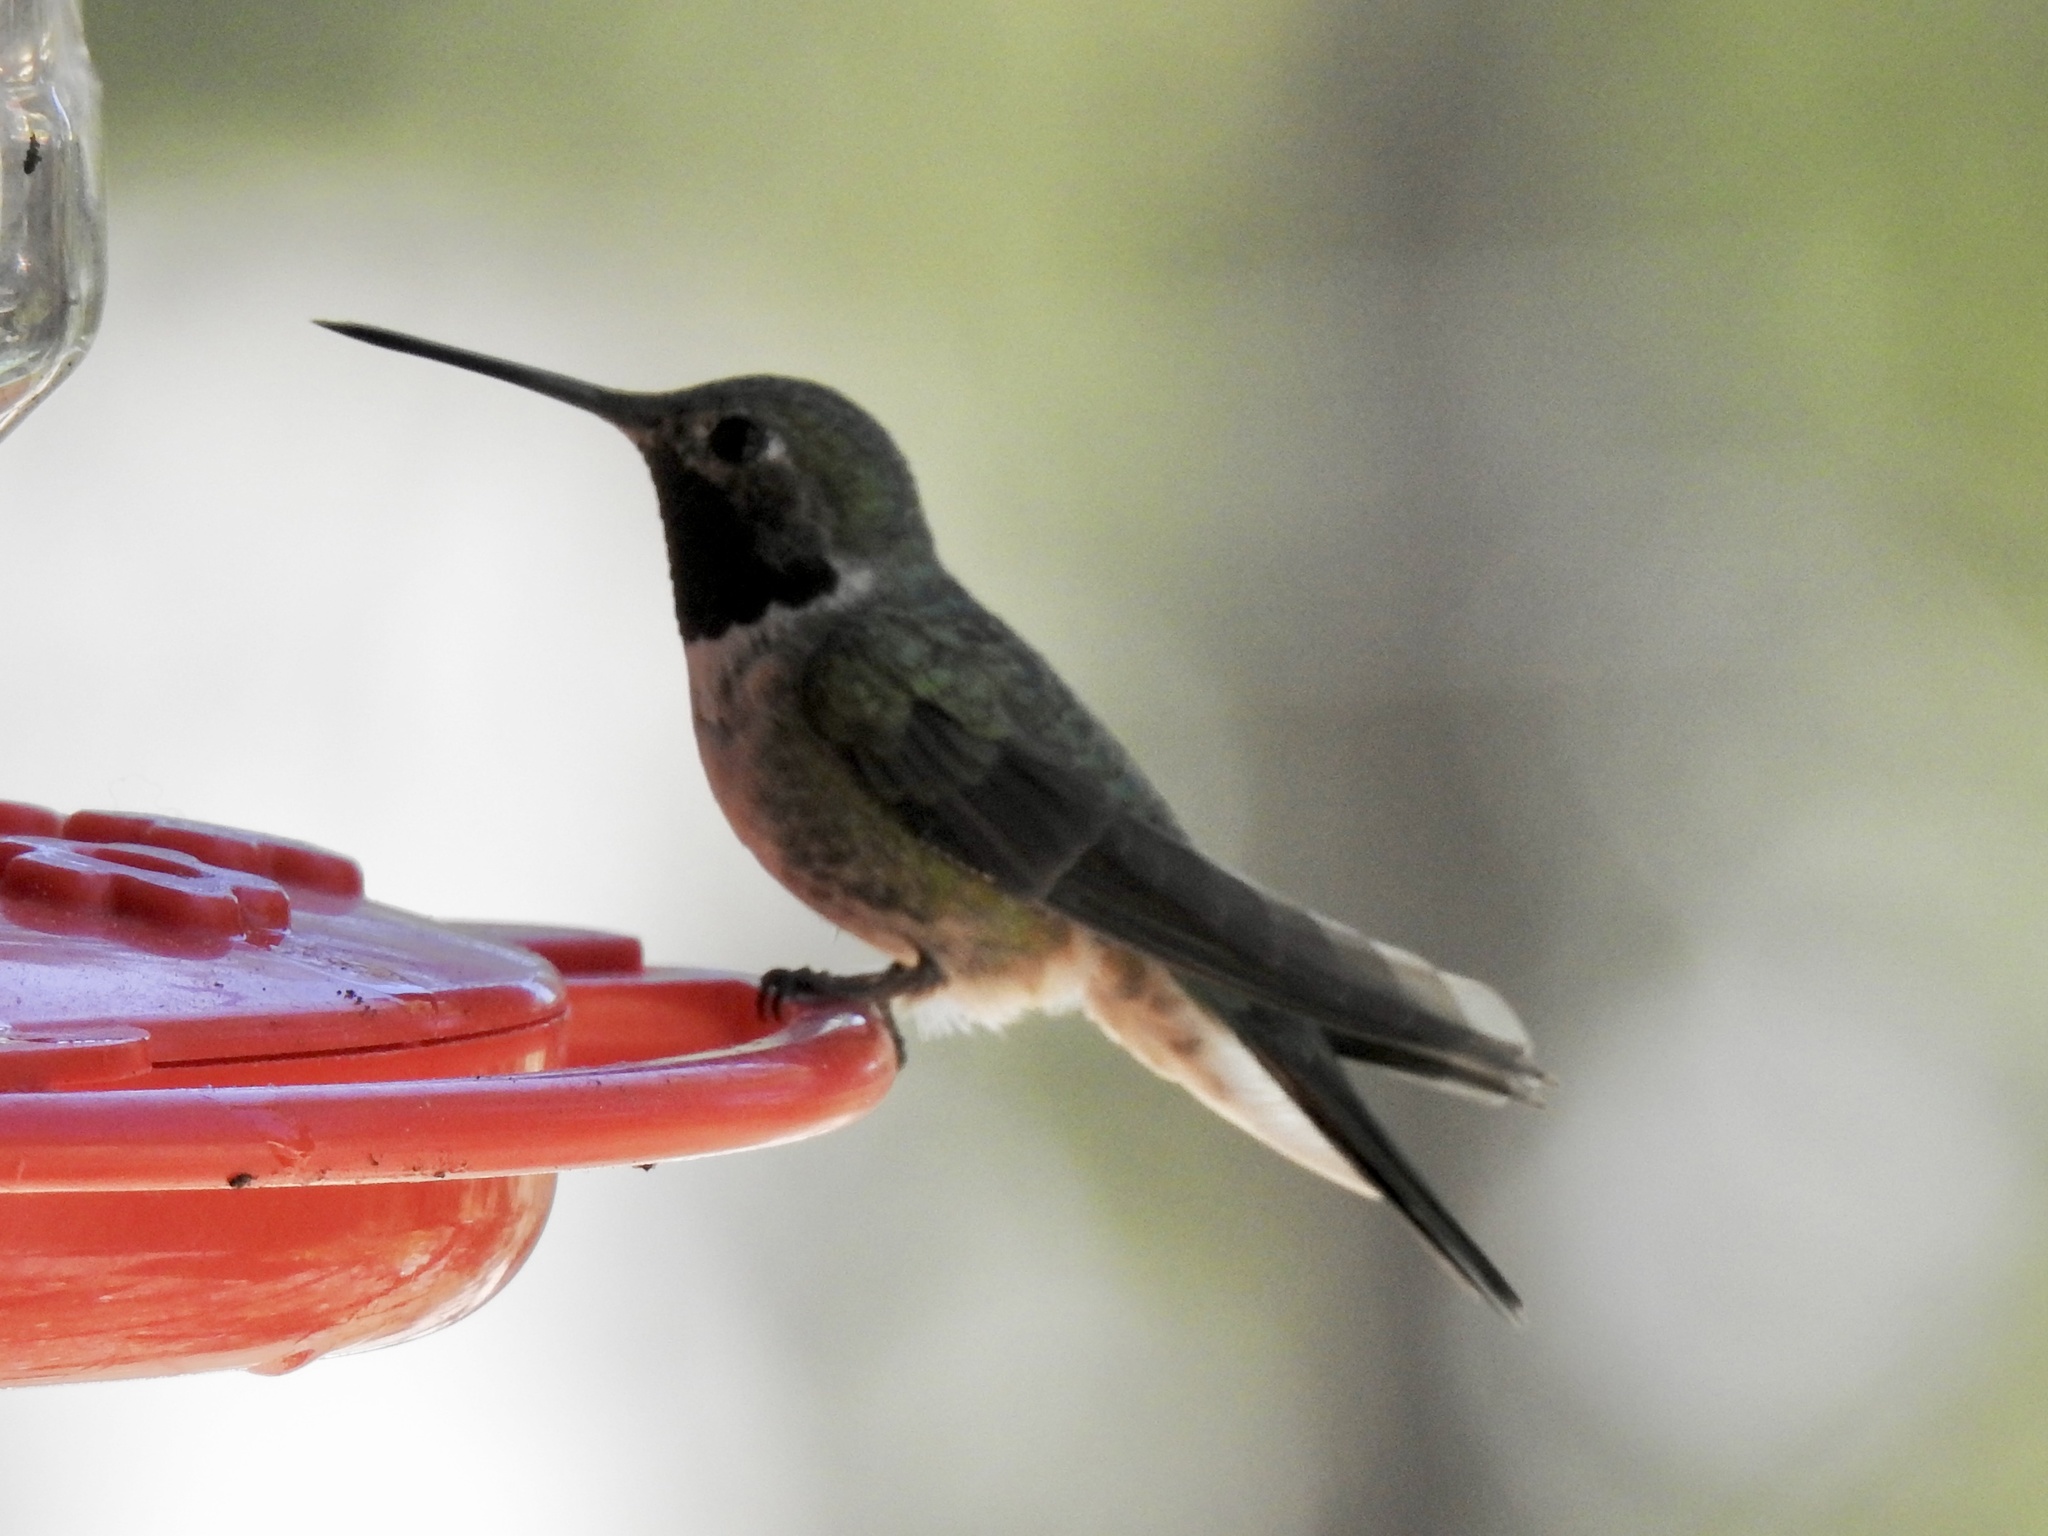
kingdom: Animalia
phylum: Chordata
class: Aves
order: Apodiformes
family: Trochilidae
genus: Selasphorus
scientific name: Selasphorus platycercus
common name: Broad-tailed hummingbird
